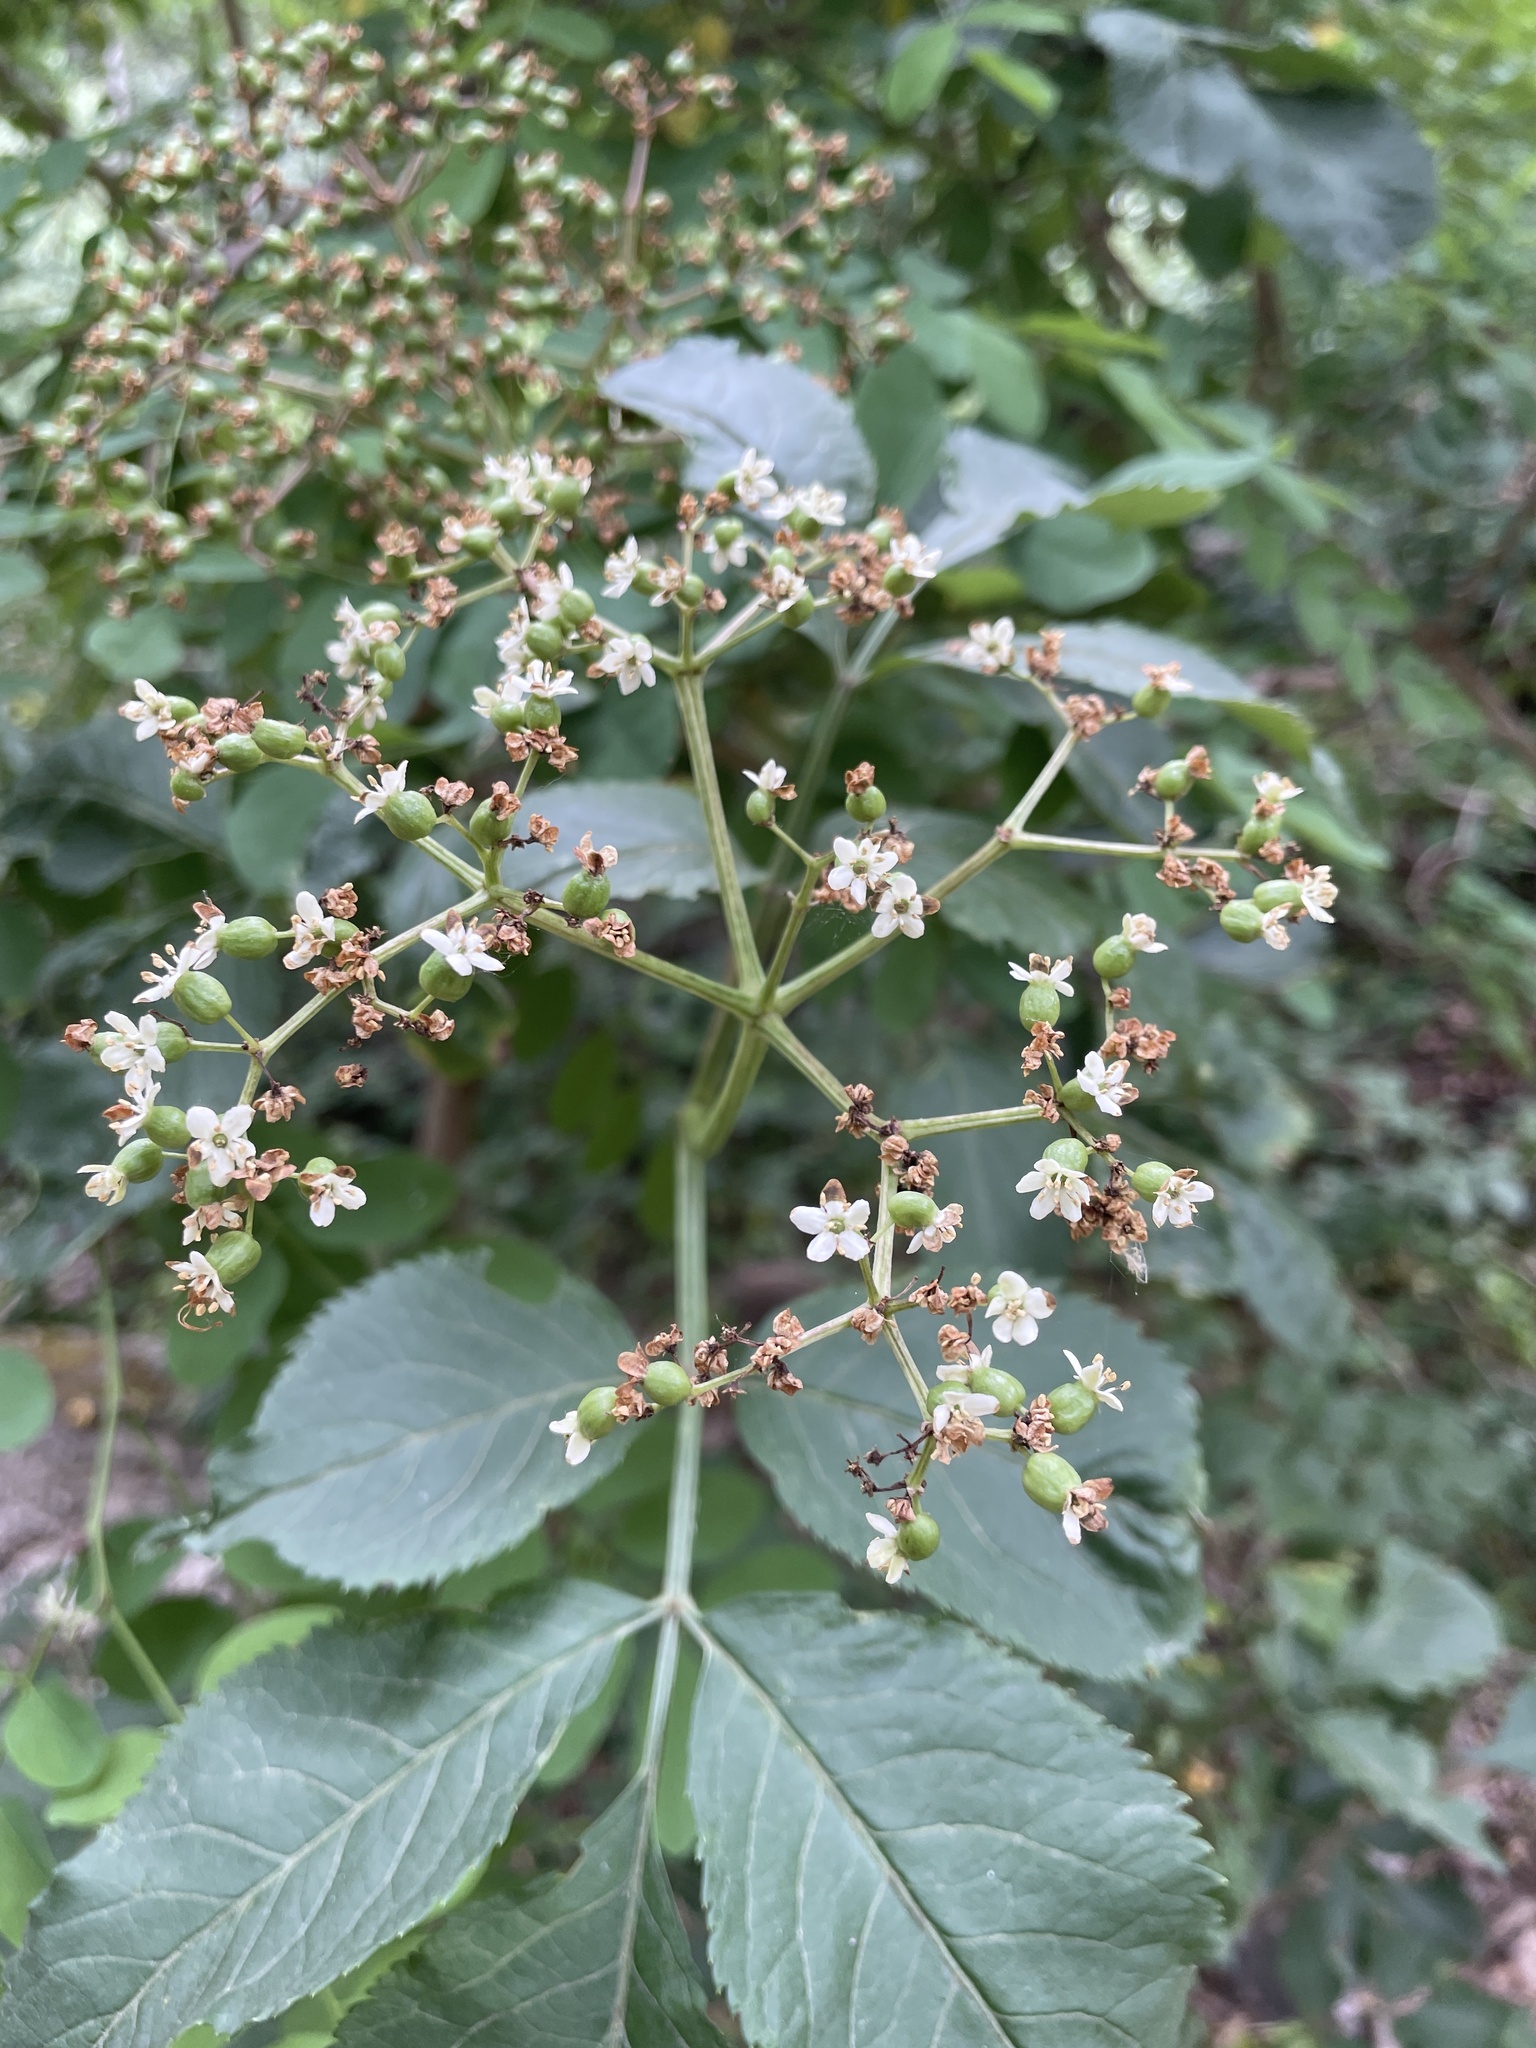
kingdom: Plantae
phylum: Tracheophyta
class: Magnoliopsida
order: Dipsacales
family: Viburnaceae
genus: Sambucus
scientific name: Sambucus nigra
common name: Elder
